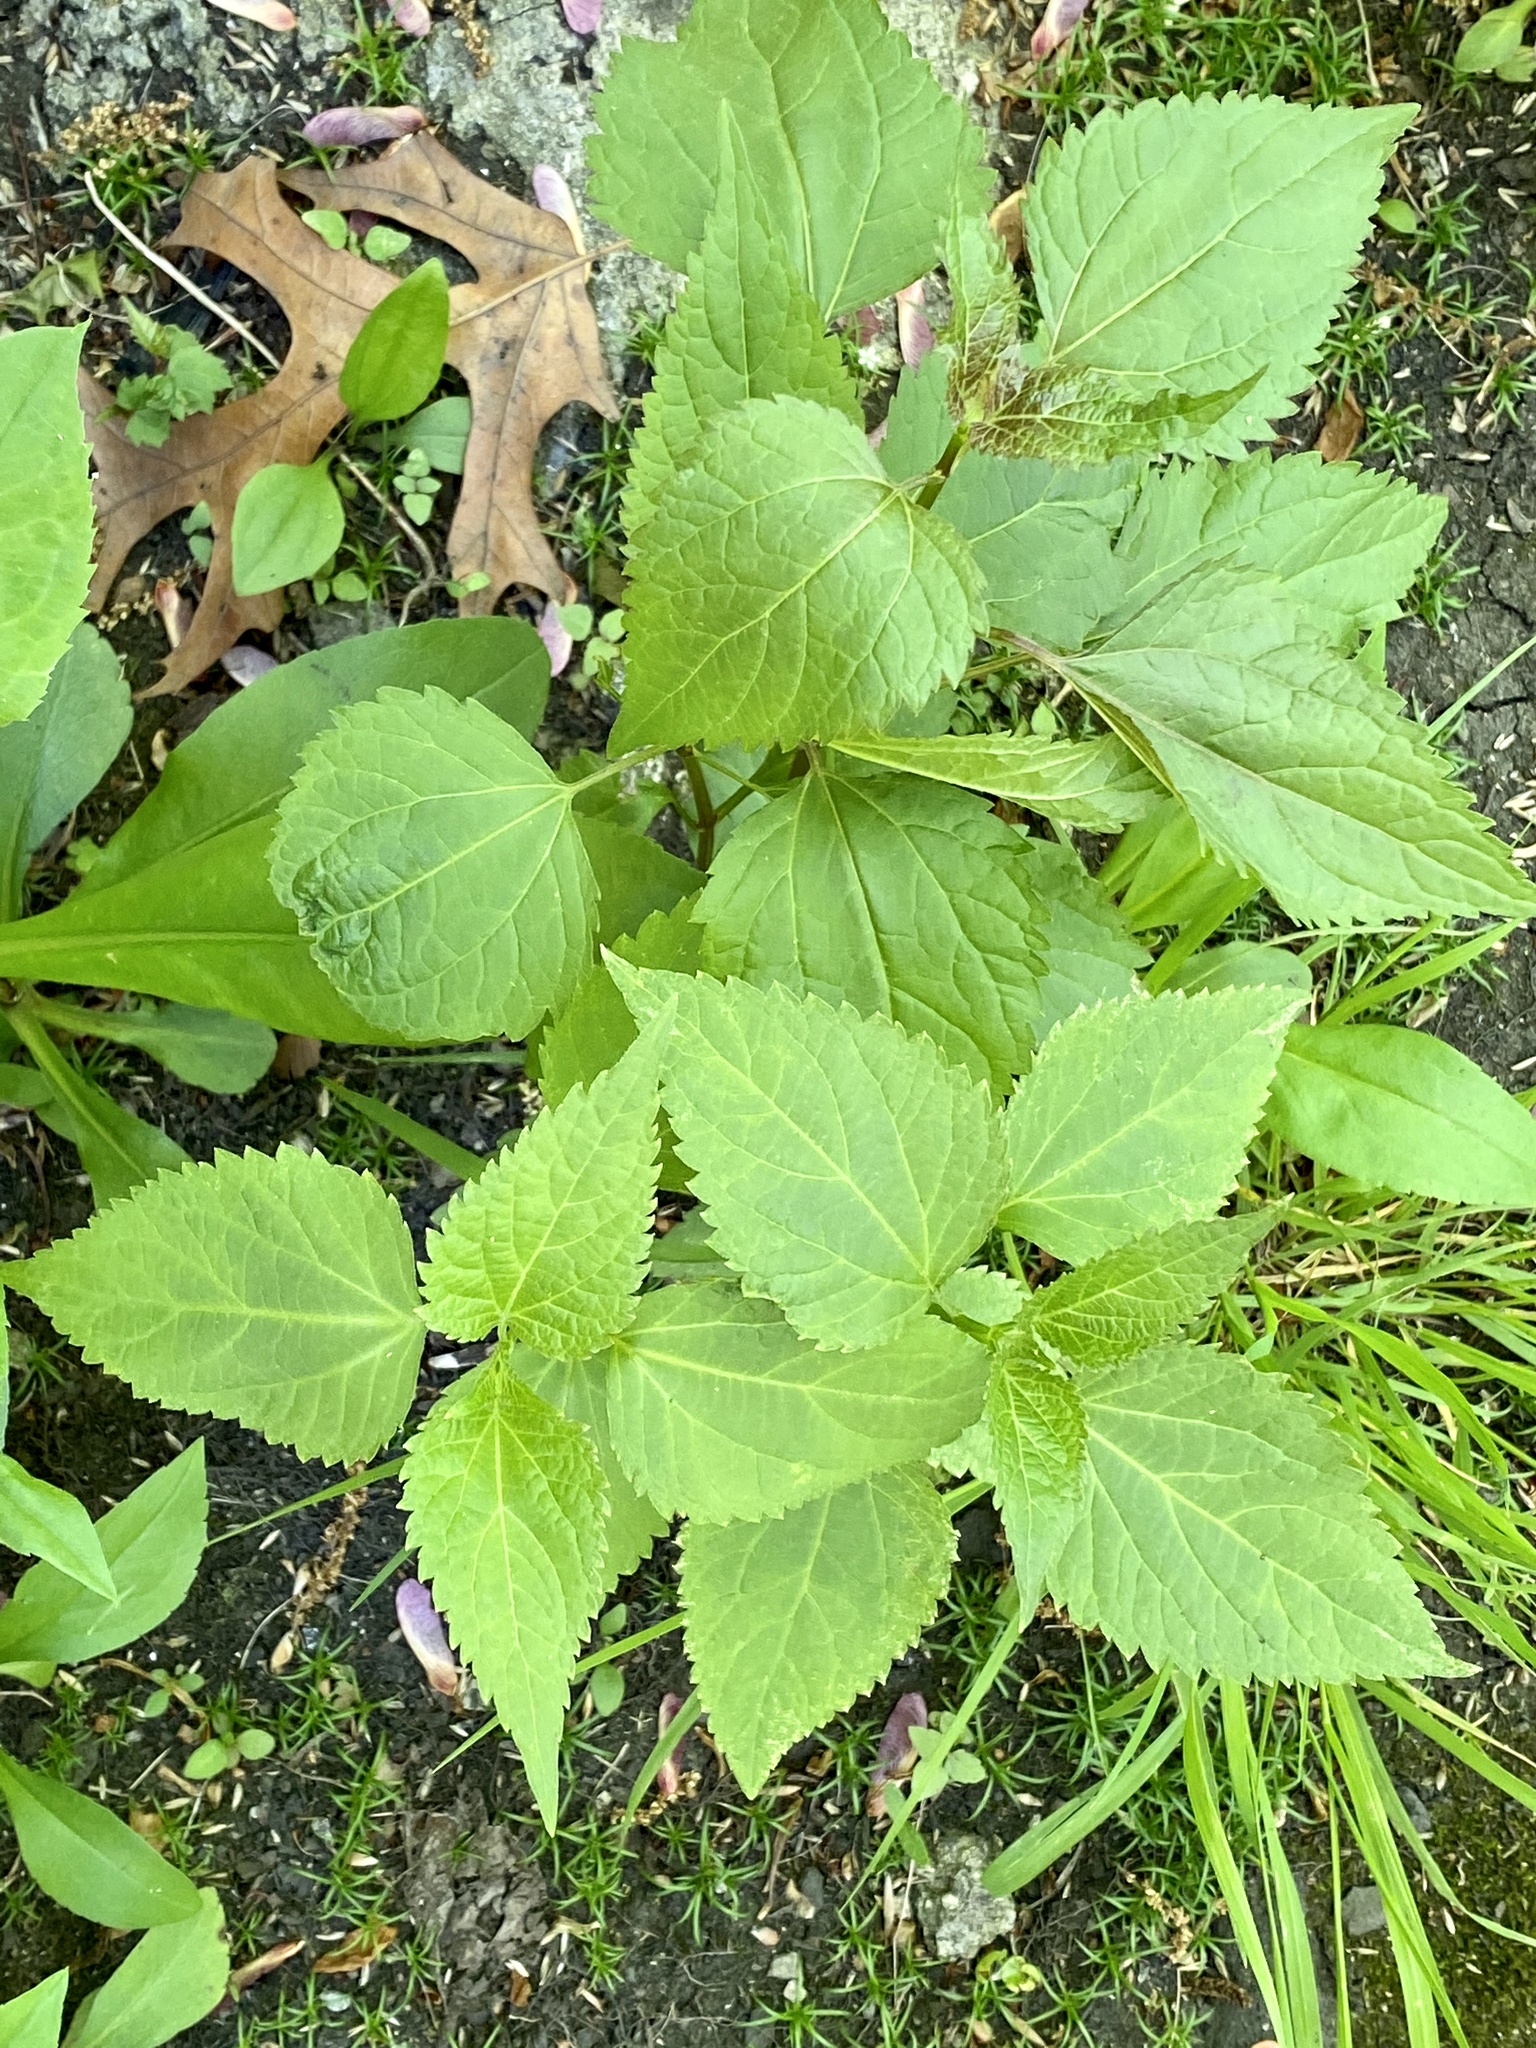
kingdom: Plantae
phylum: Tracheophyta
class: Magnoliopsida
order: Asterales
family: Asteraceae
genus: Ageratina
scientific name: Ageratina altissima
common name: White snakeroot
